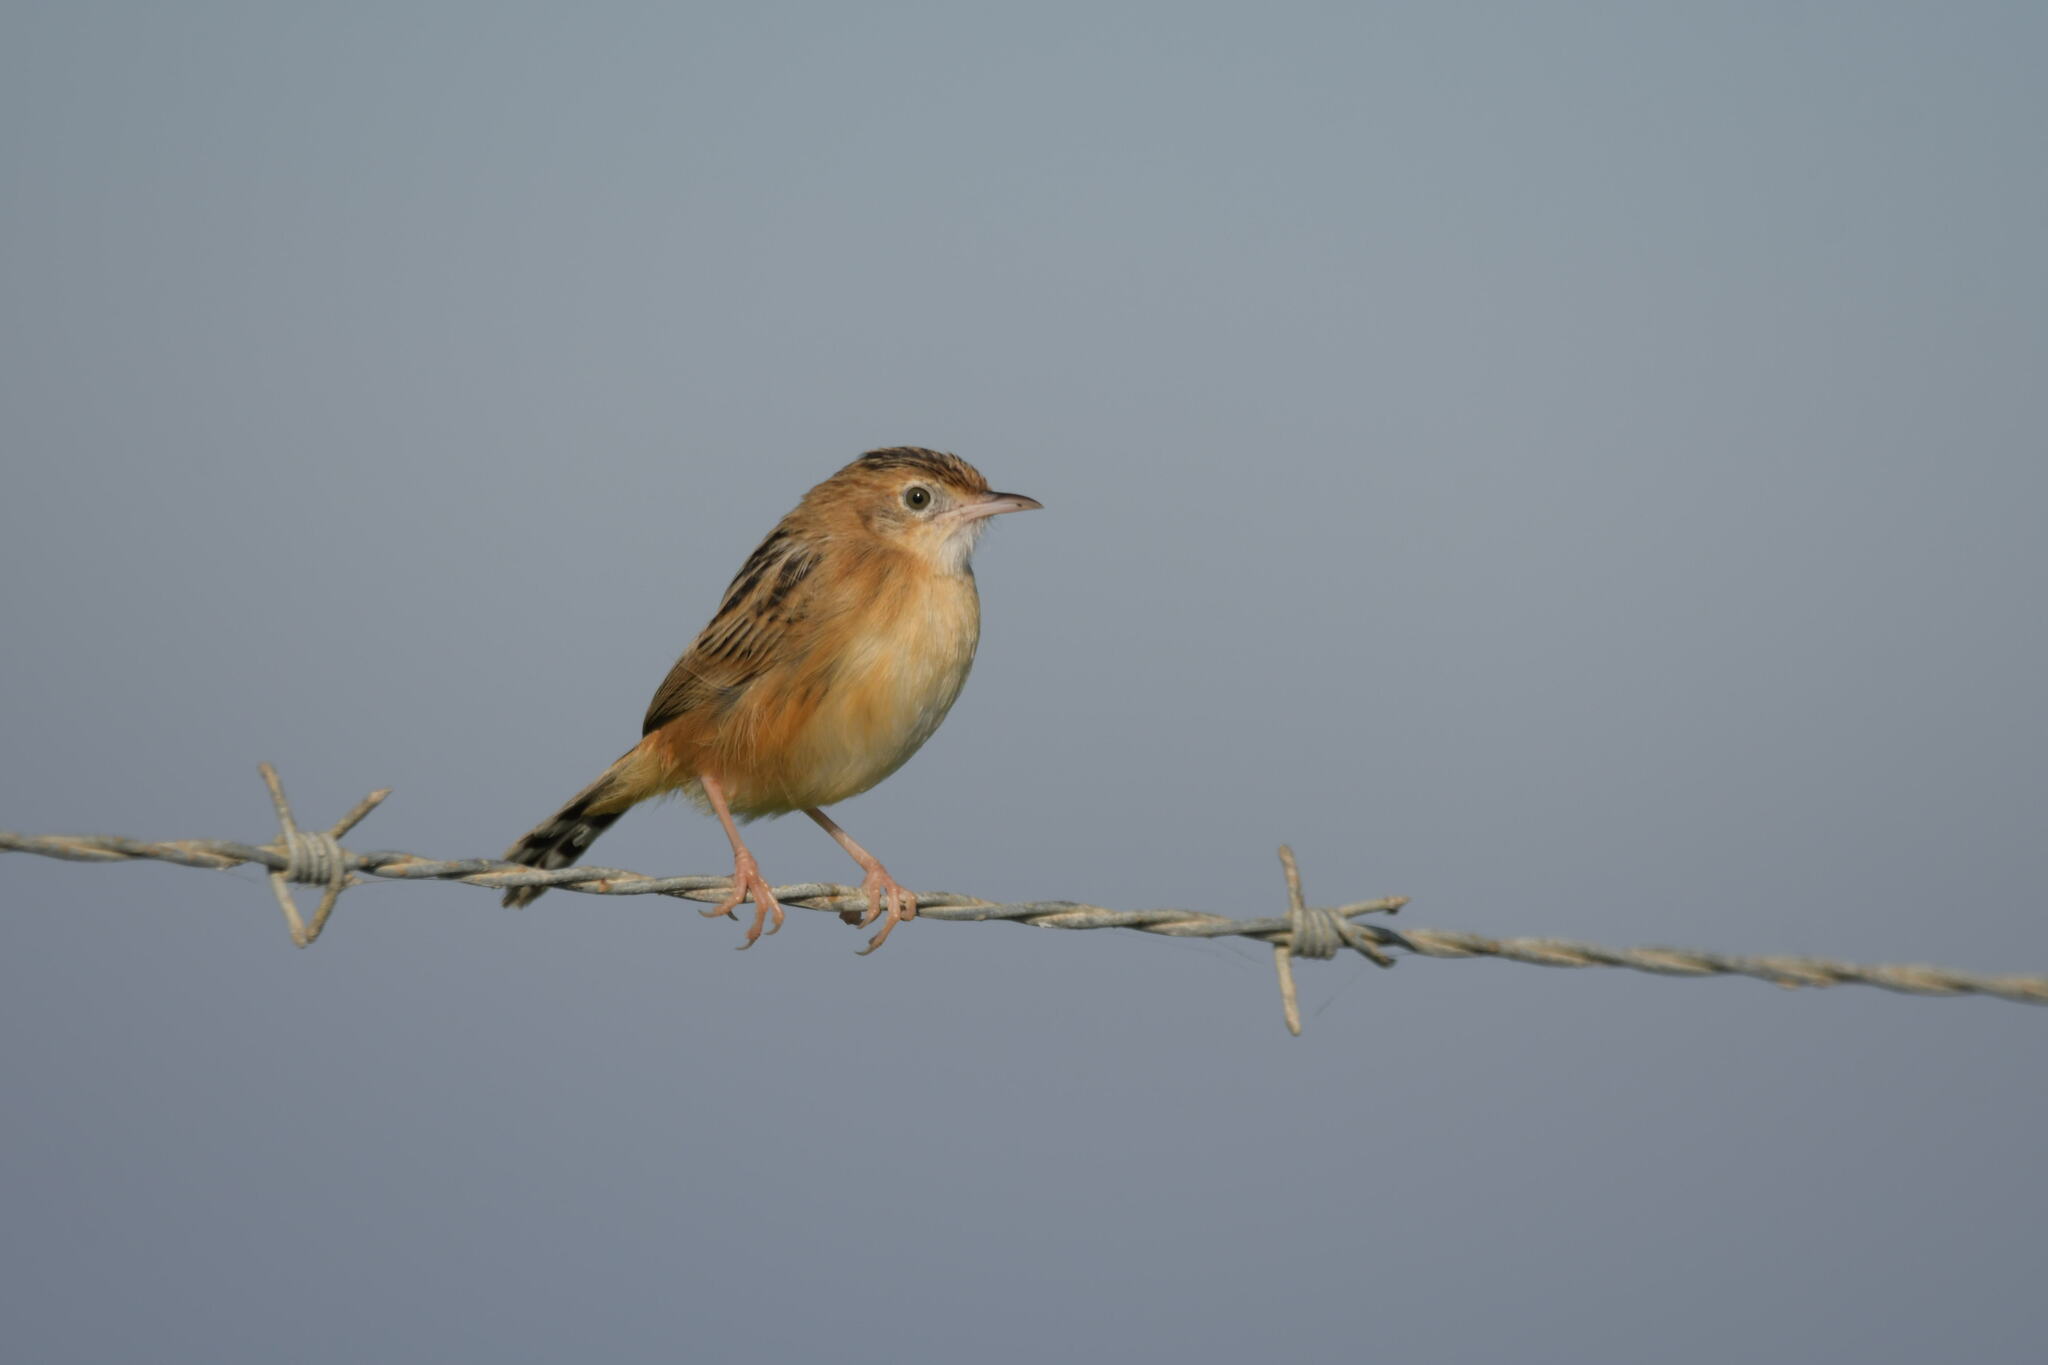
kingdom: Animalia
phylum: Chordata
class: Aves
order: Passeriformes
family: Cisticolidae
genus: Cisticola
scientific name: Cisticola juncidis
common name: Zitting cisticola
